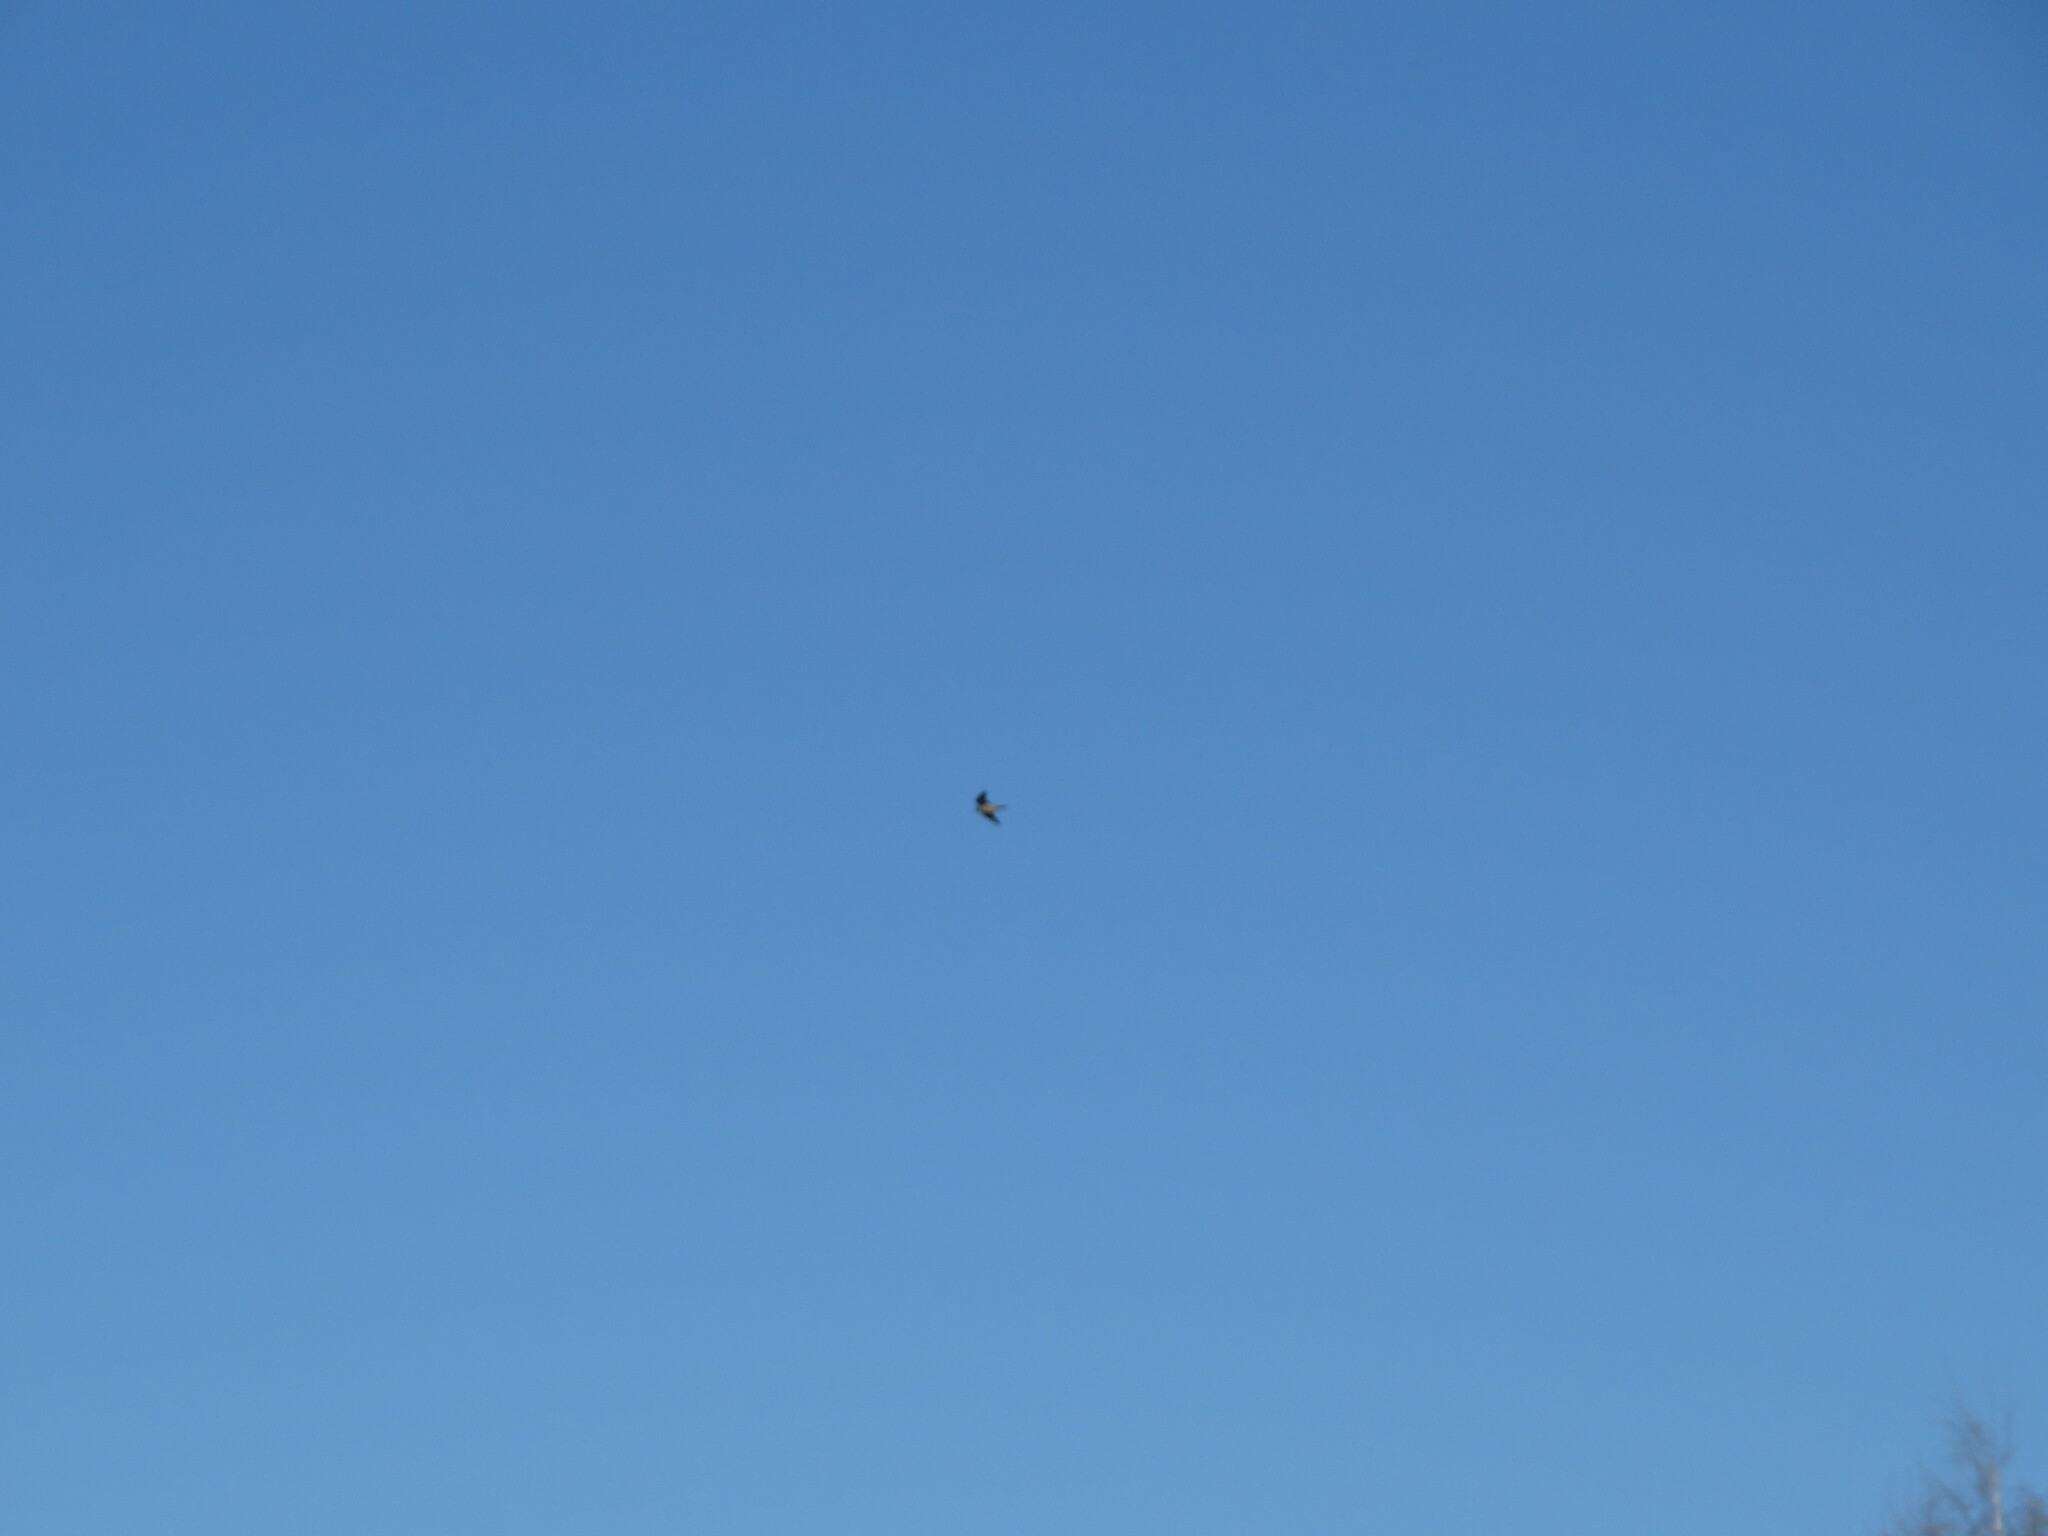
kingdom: Animalia
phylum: Chordata
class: Aves
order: Falconiformes
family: Falconidae
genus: Falco
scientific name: Falco peregrinus
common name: Peregrine falcon
